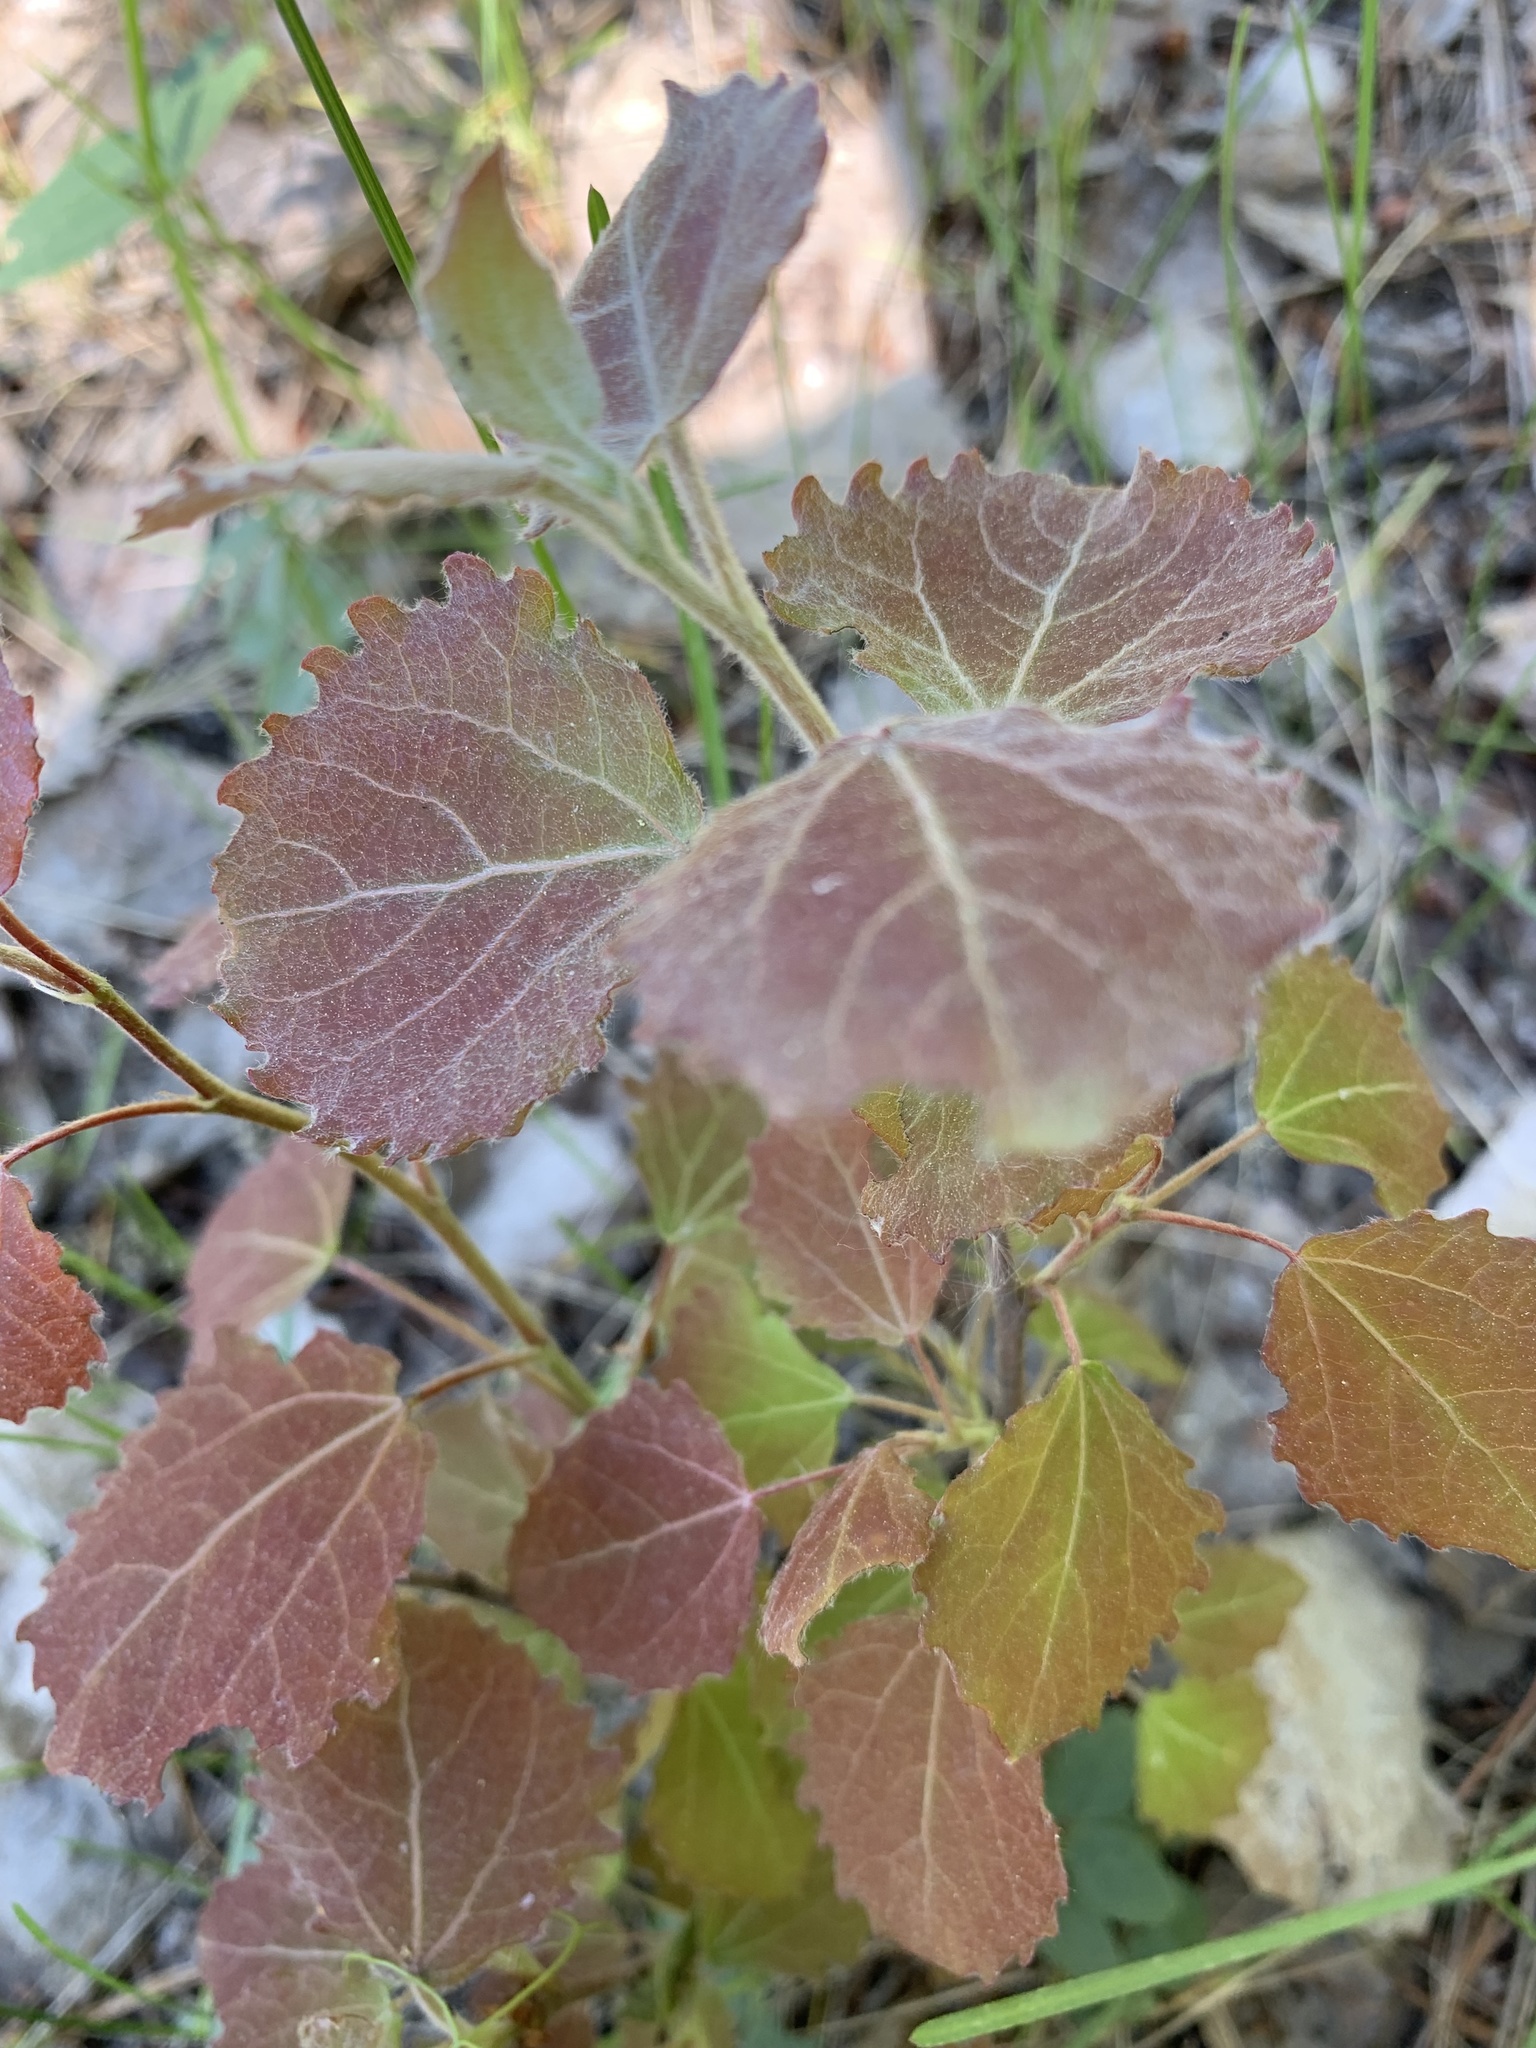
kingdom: Plantae
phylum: Tracheophyta
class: Magnoliopsida
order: Malpighiales
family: Salicaceae
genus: Populus
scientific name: Populus tremula
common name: European aspen
